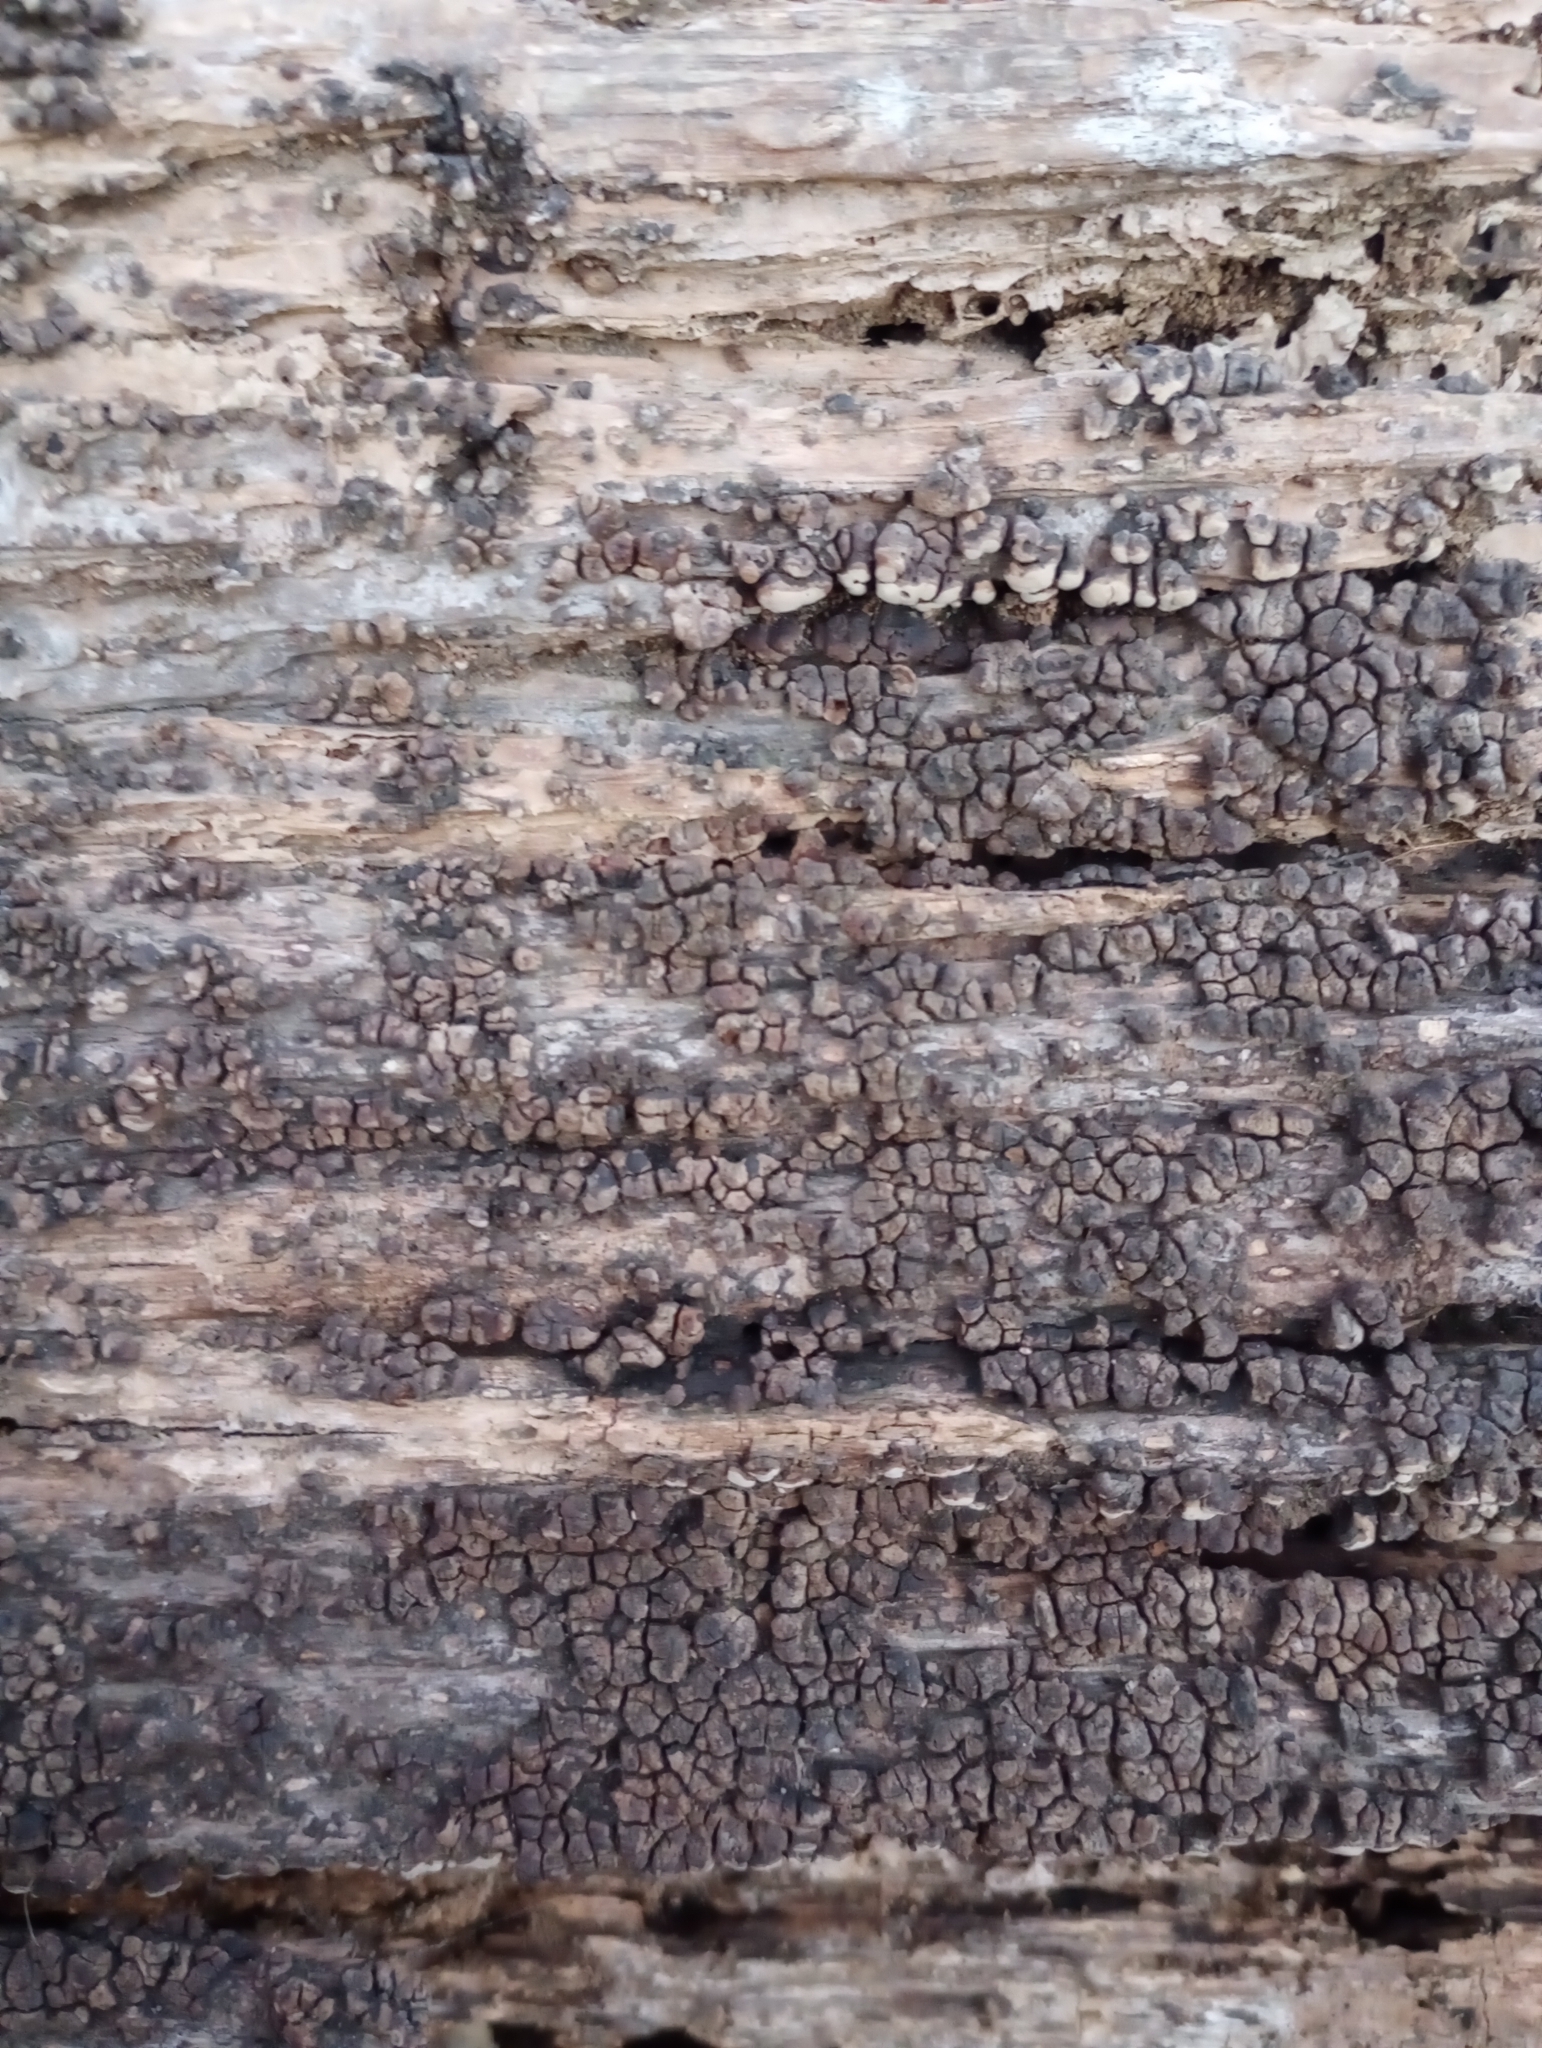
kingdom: Fungi
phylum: Basidiomycota
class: Agaricomycetes
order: Russulales
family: Stereaceae
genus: Xylobolus
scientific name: Xylobolus frustulatus
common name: Ceramic parchment
